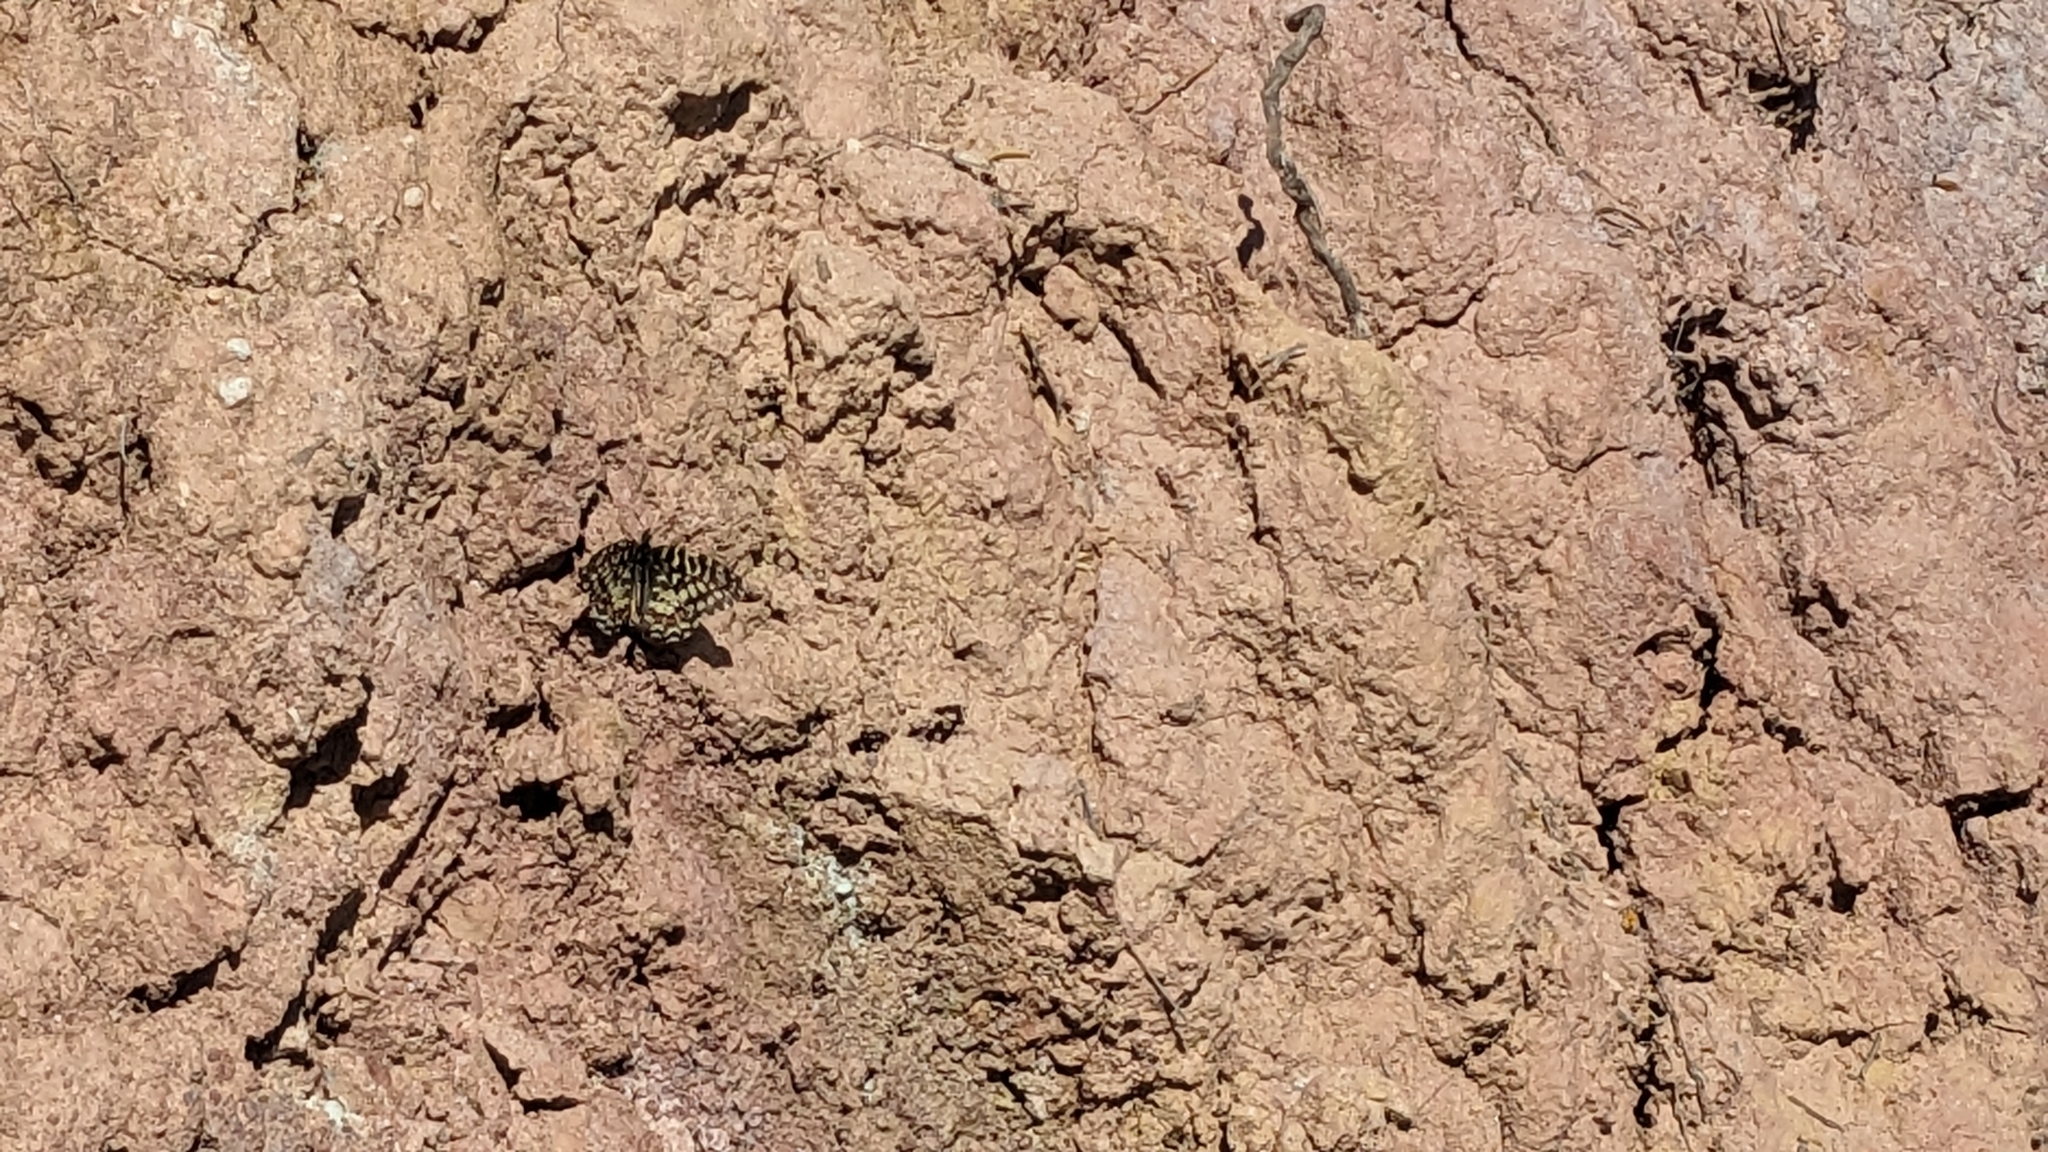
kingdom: Animalia
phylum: Arthropoda
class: Insecta
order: Lepidoptera
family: Papilionidae
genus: Zerynthia
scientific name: Zerynthia rumina
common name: Spanish festoon
